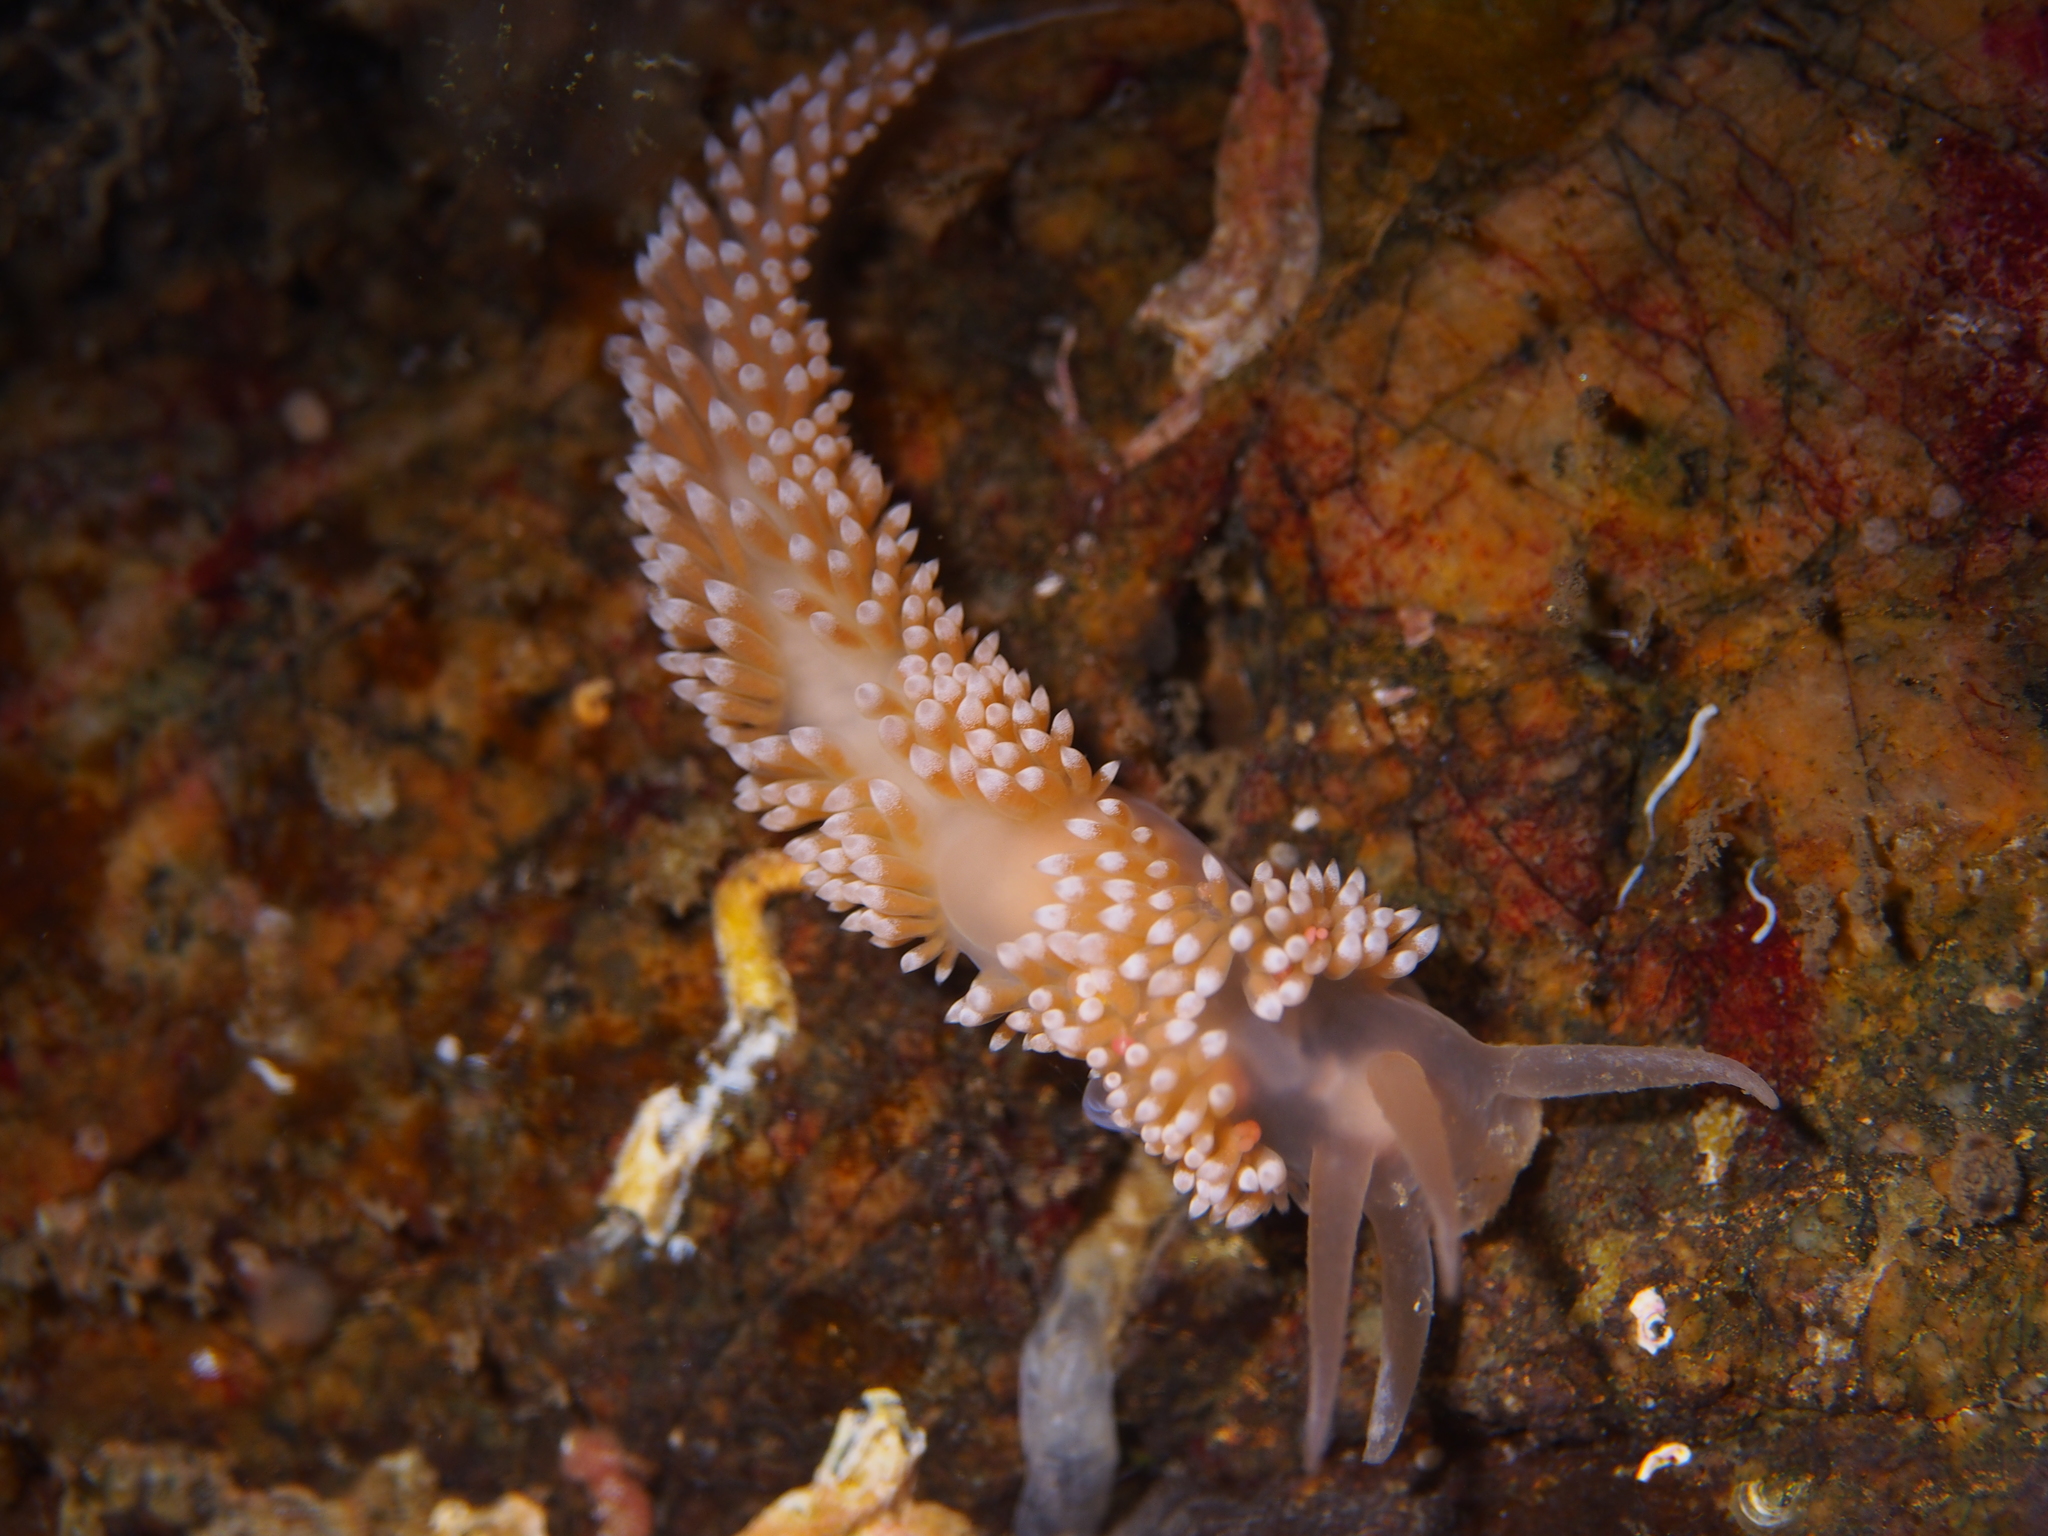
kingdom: Animalia
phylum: Mollusca
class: Gastropoda
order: Nudibranchia
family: Coryphellidae
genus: Coryphella
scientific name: Coryphella verrucosa
